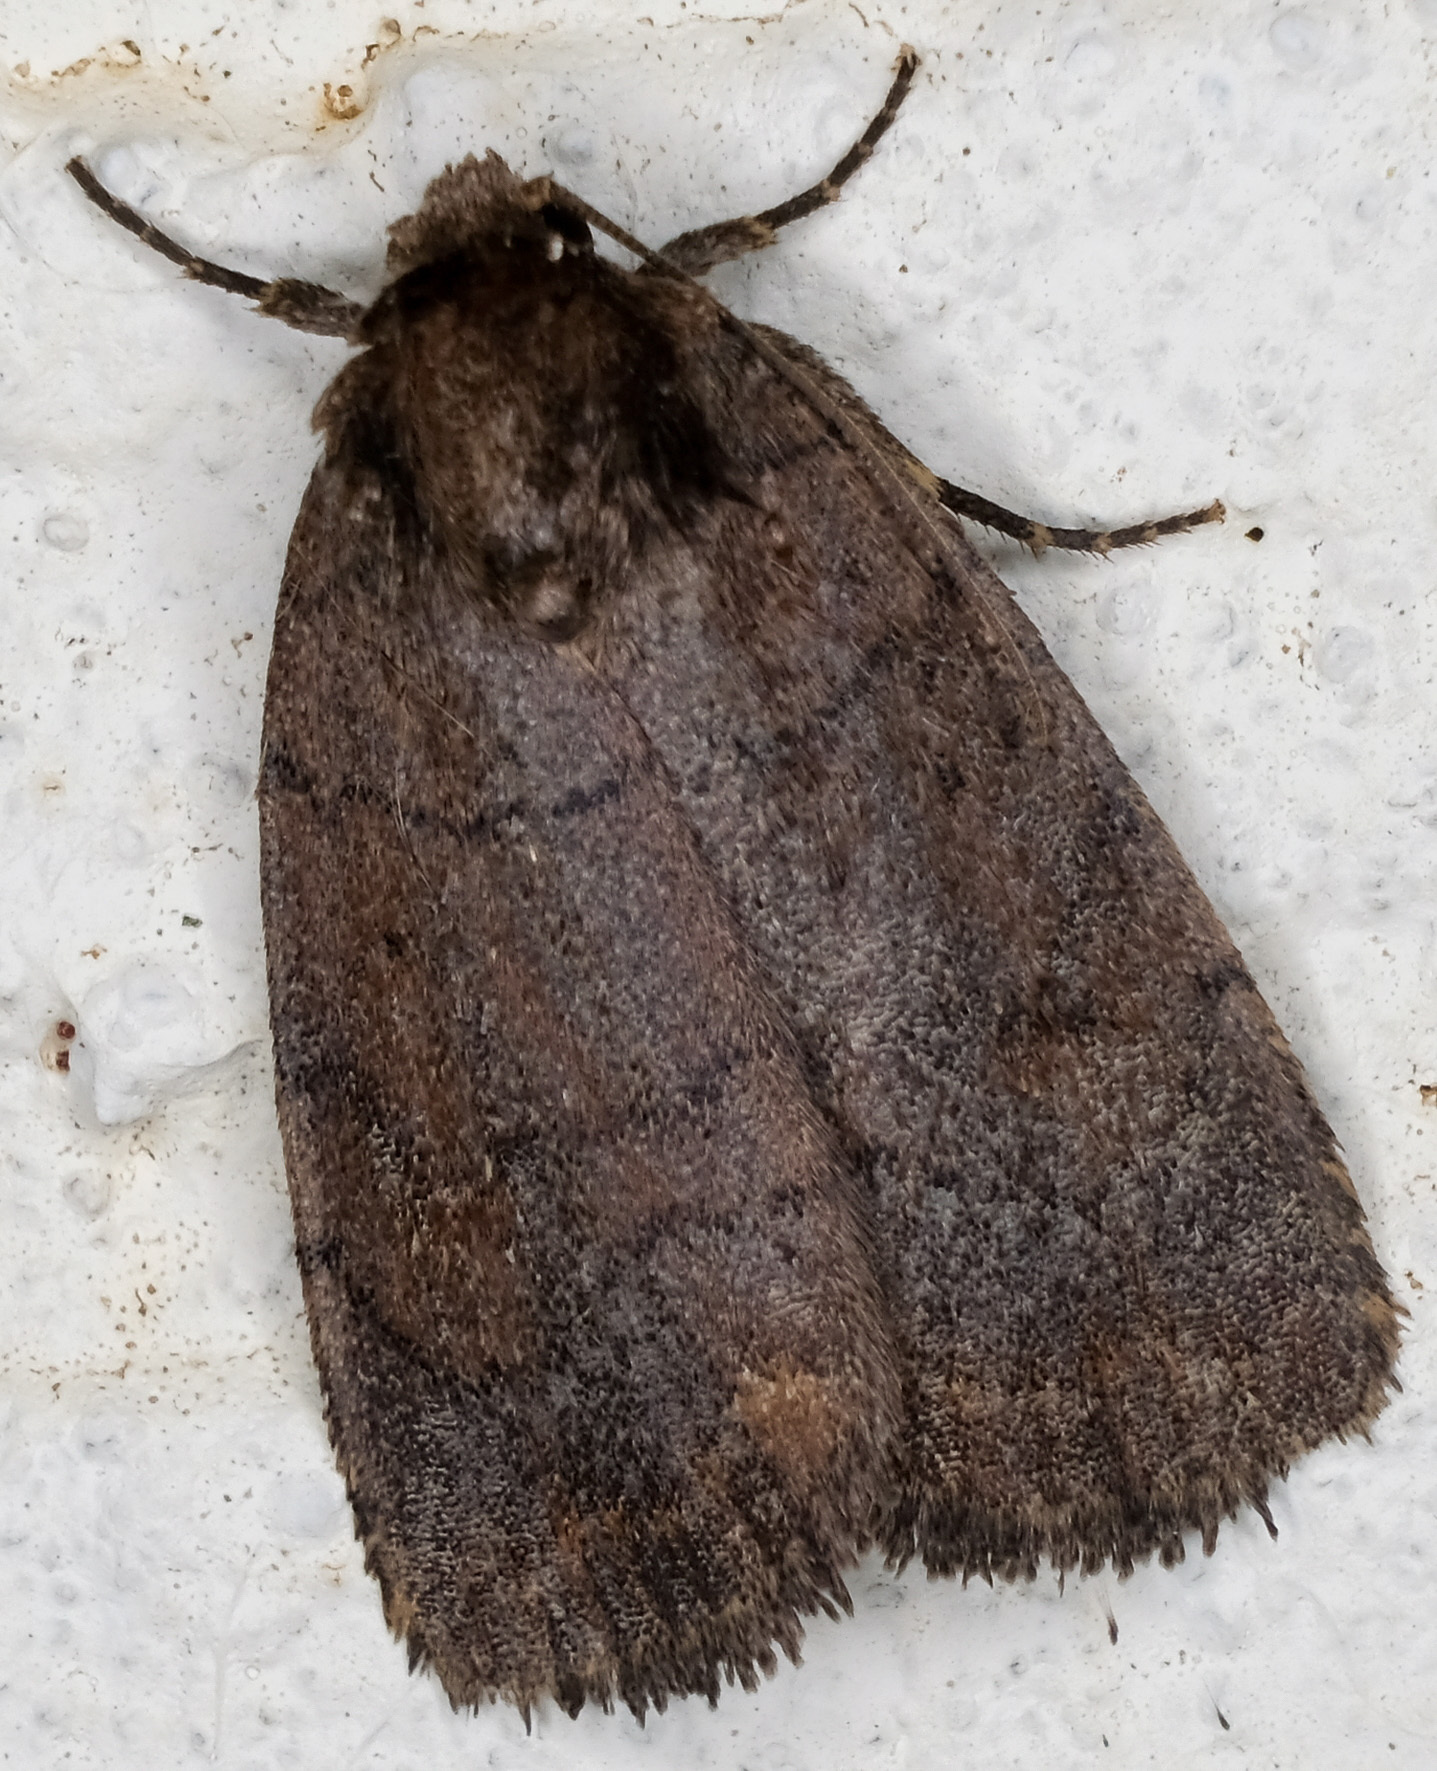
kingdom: Animalia
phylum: Arthropoda
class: Insecta
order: Lepidoptera
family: Noctuidae
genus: Athetis
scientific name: Athetis tarda
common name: Slowpoke moth
